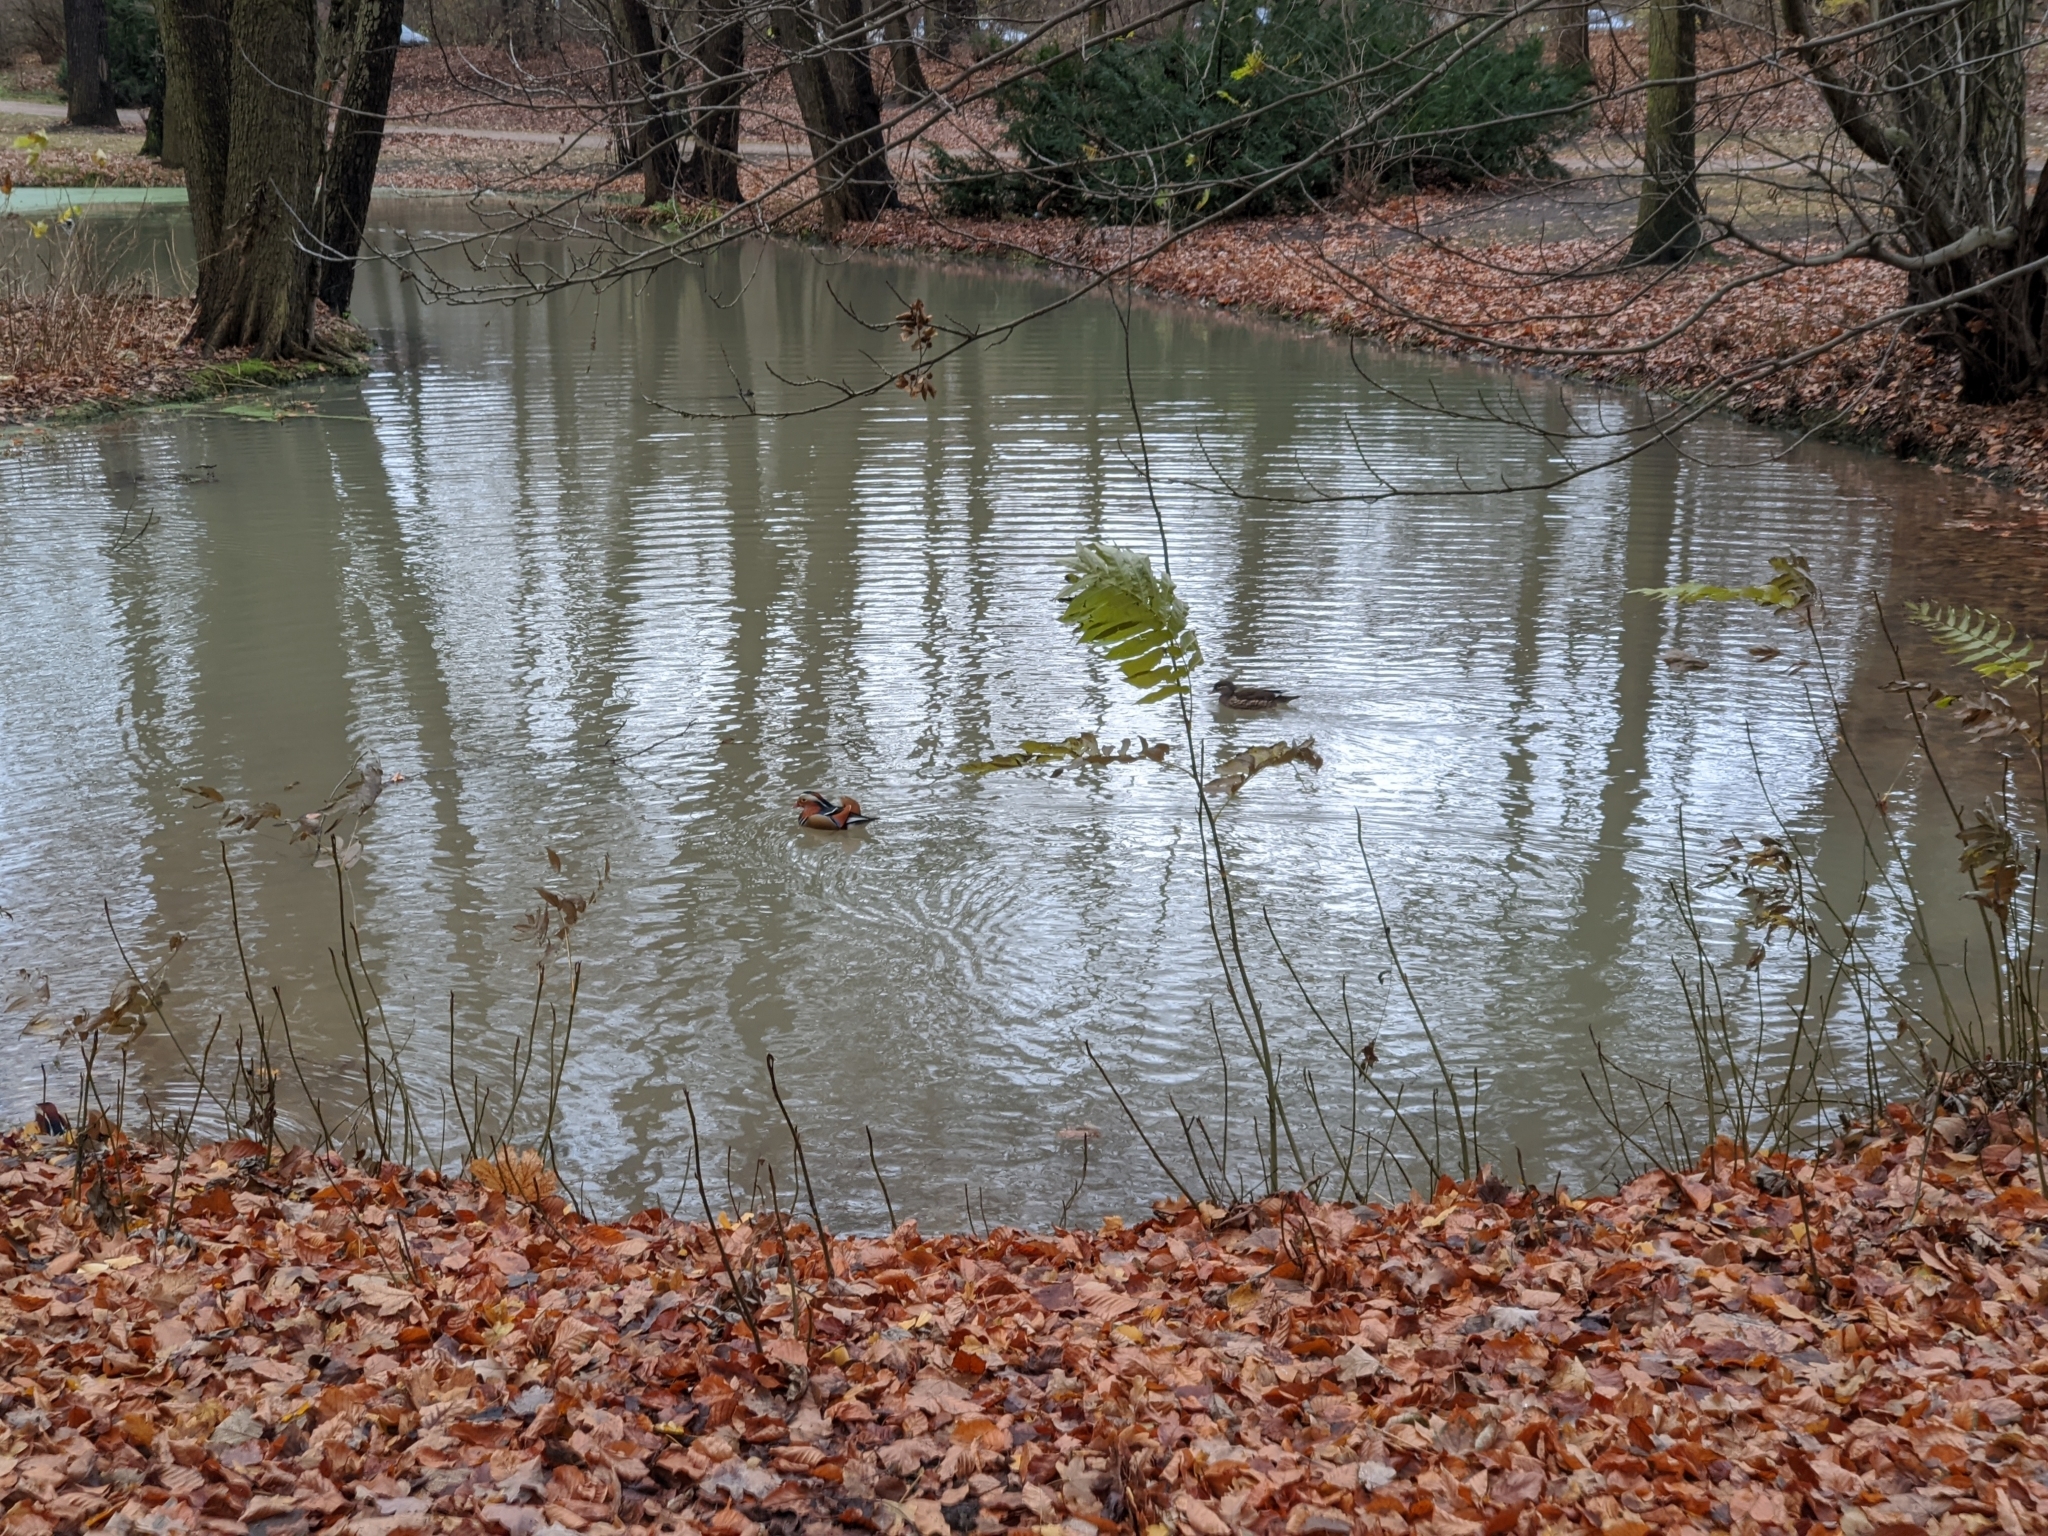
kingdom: Animalia
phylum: Chordata
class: Aves
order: Anseriformes
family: Anatidae
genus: Aix
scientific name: Aix galericulata
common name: Mandarin duck
